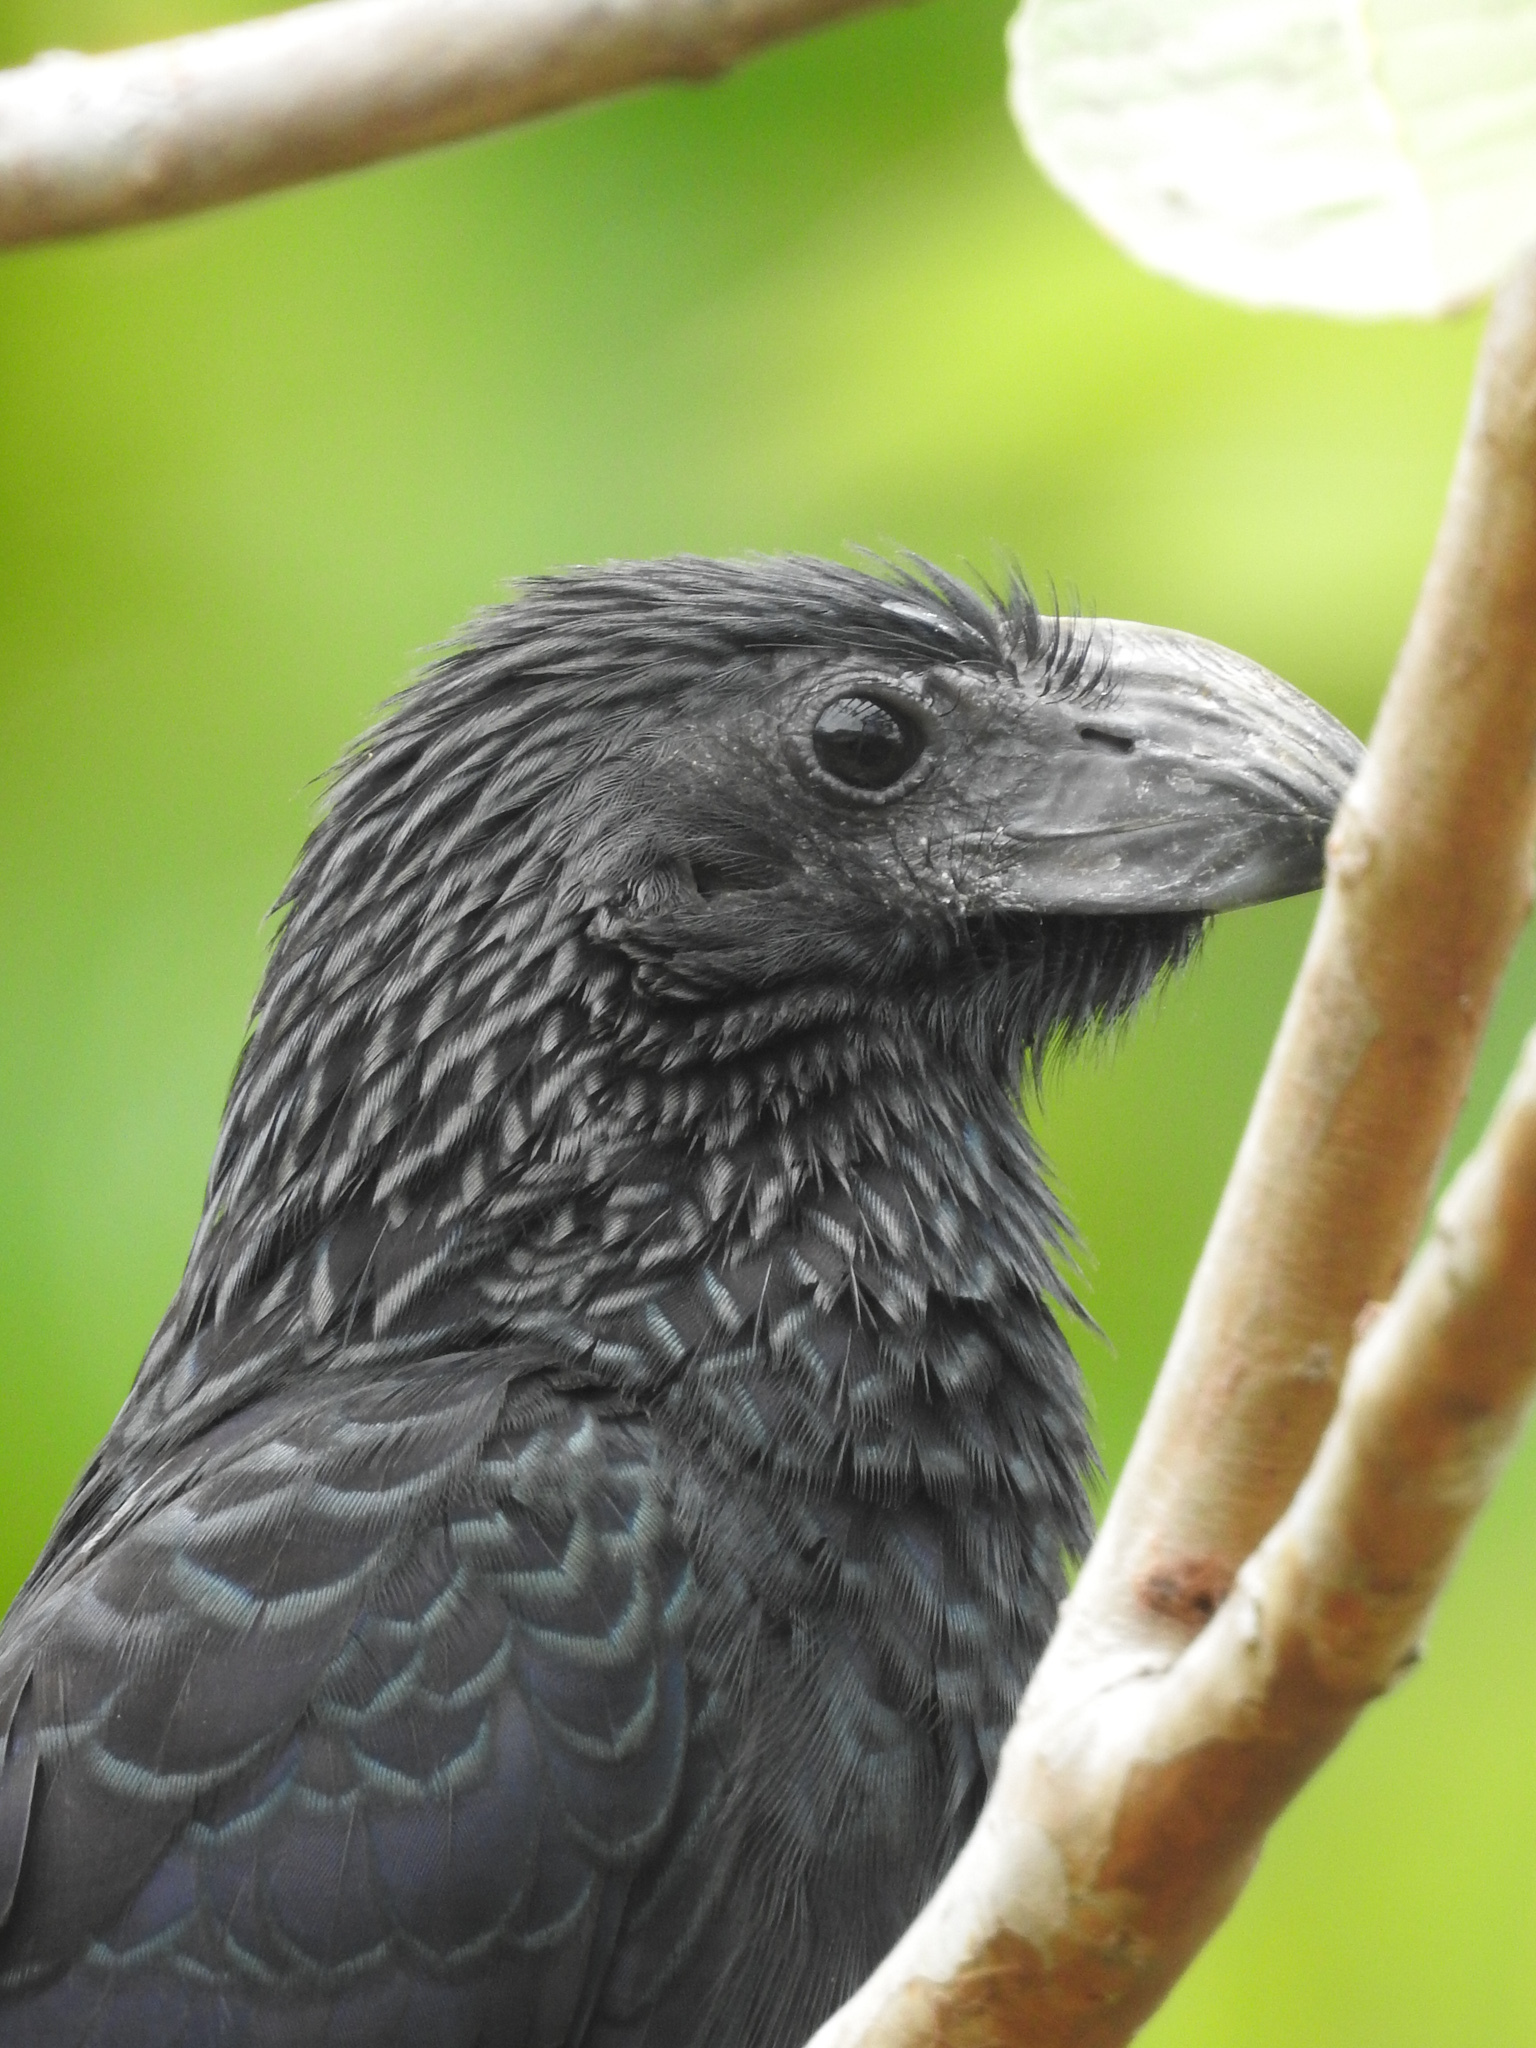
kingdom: Animalia
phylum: Chordata
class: Aves
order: Cuculiformes
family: Cuculidae
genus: Crotophaga
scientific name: Crotophaga sulcirostris
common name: Groove-billed ani
